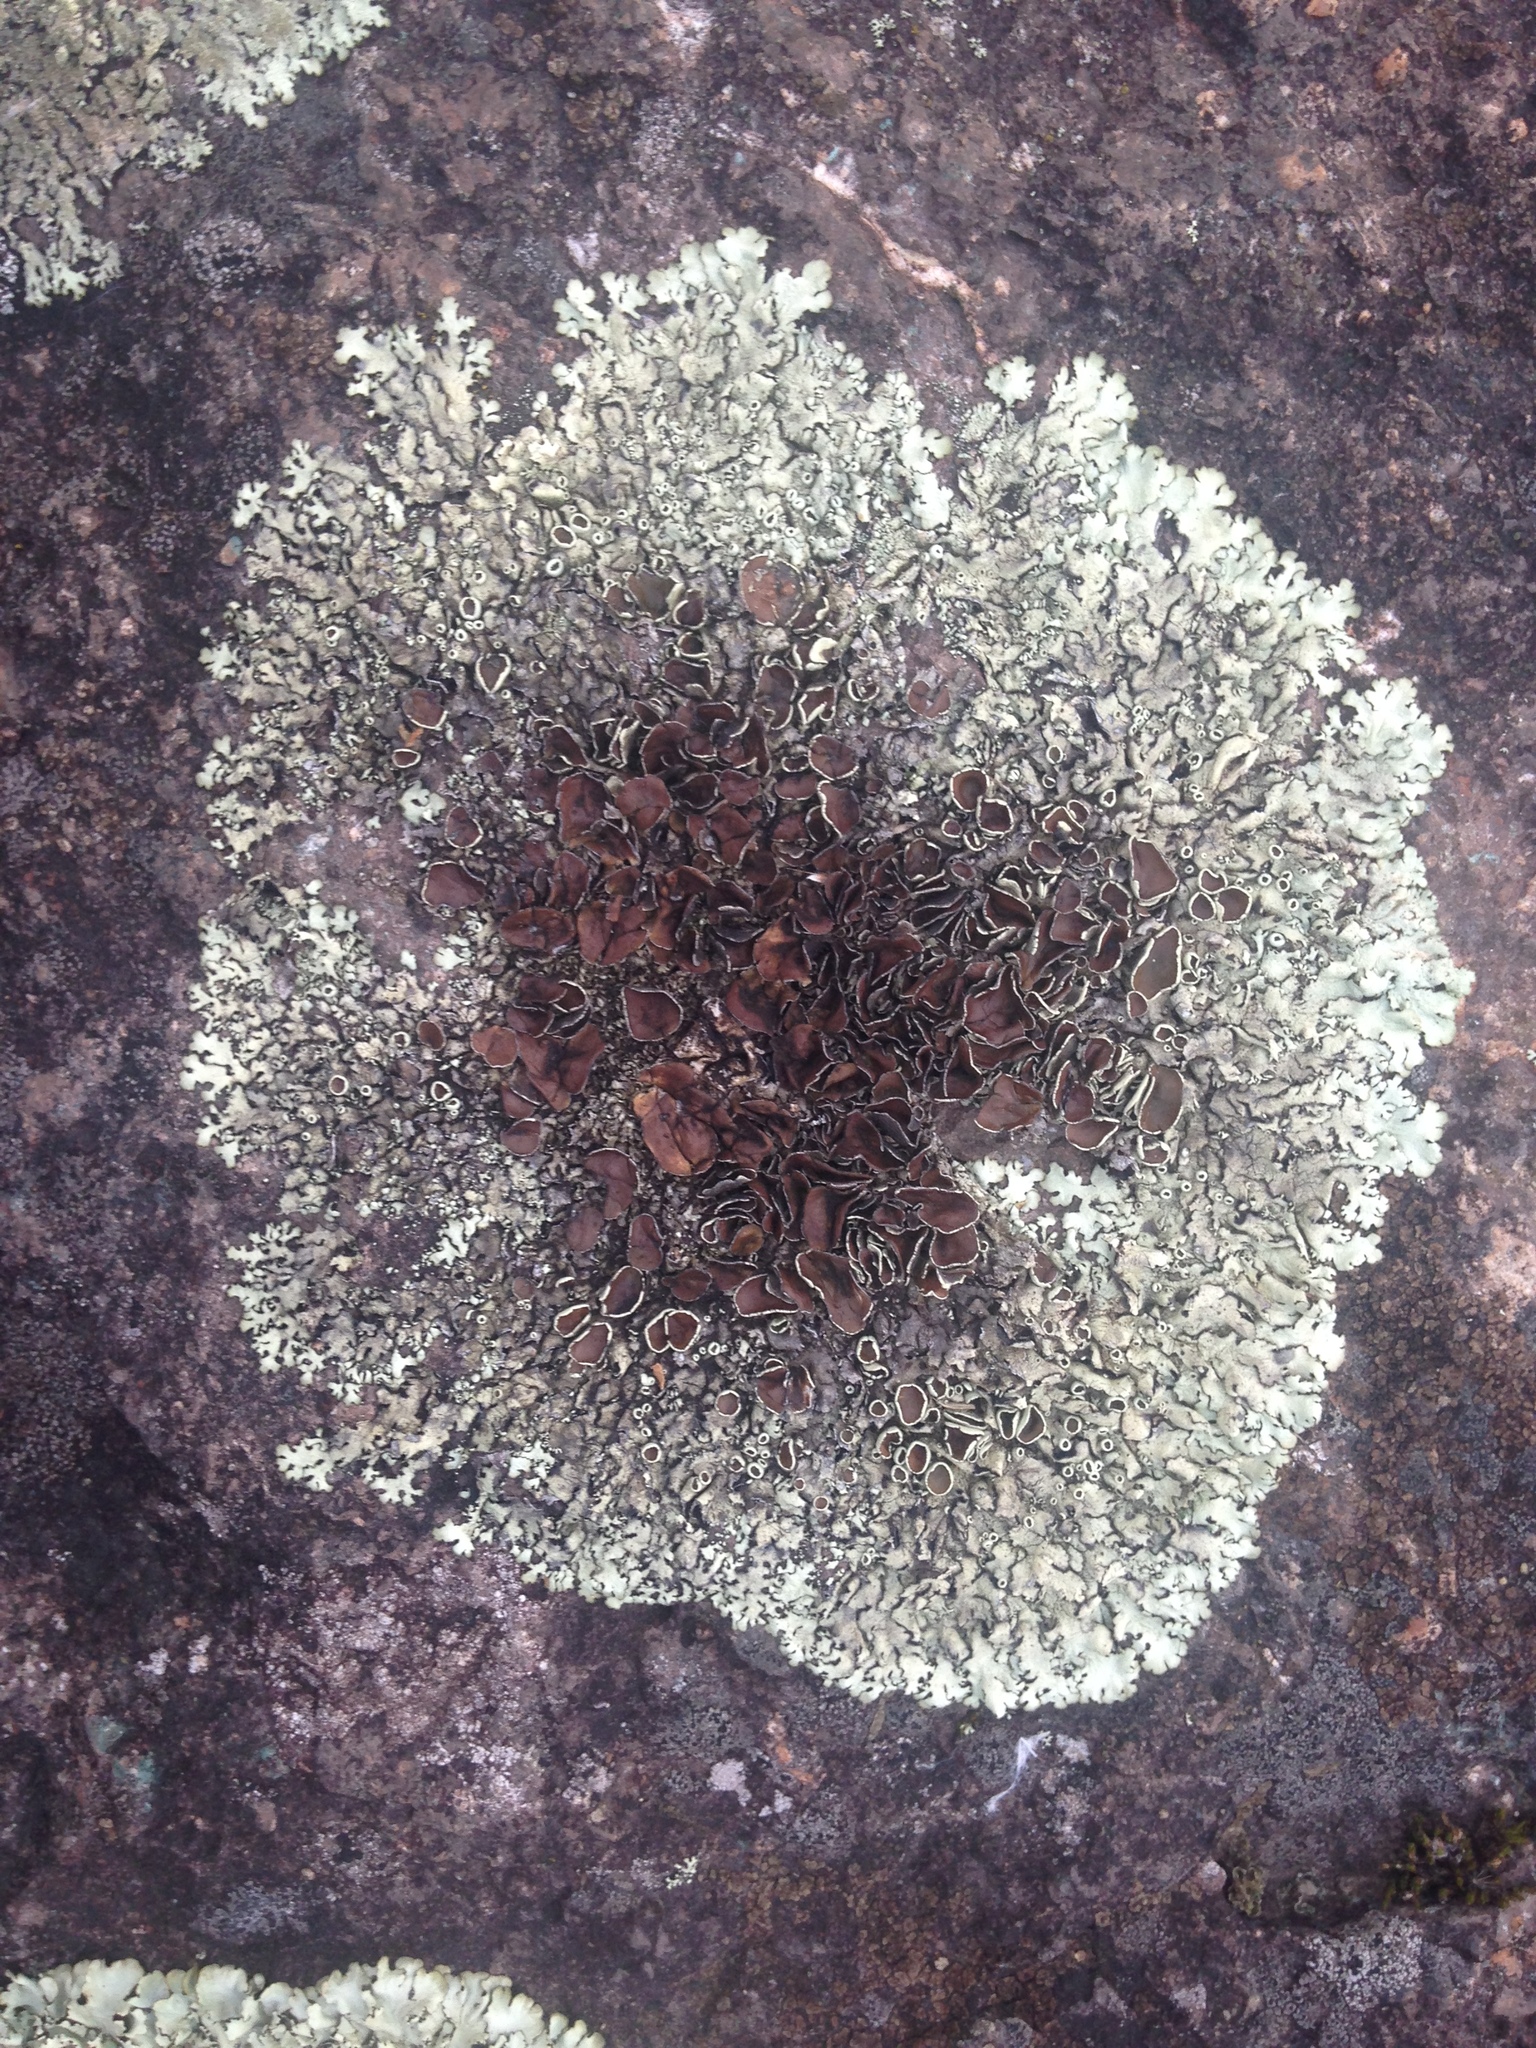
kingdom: Fungi
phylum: Ascomycota
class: Lecanoromycetes
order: Lecanorales
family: Parmeliaceae
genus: Xanthoparmelia
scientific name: Xanthoparmelia cumberlandia
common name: Cumberland rock shield
